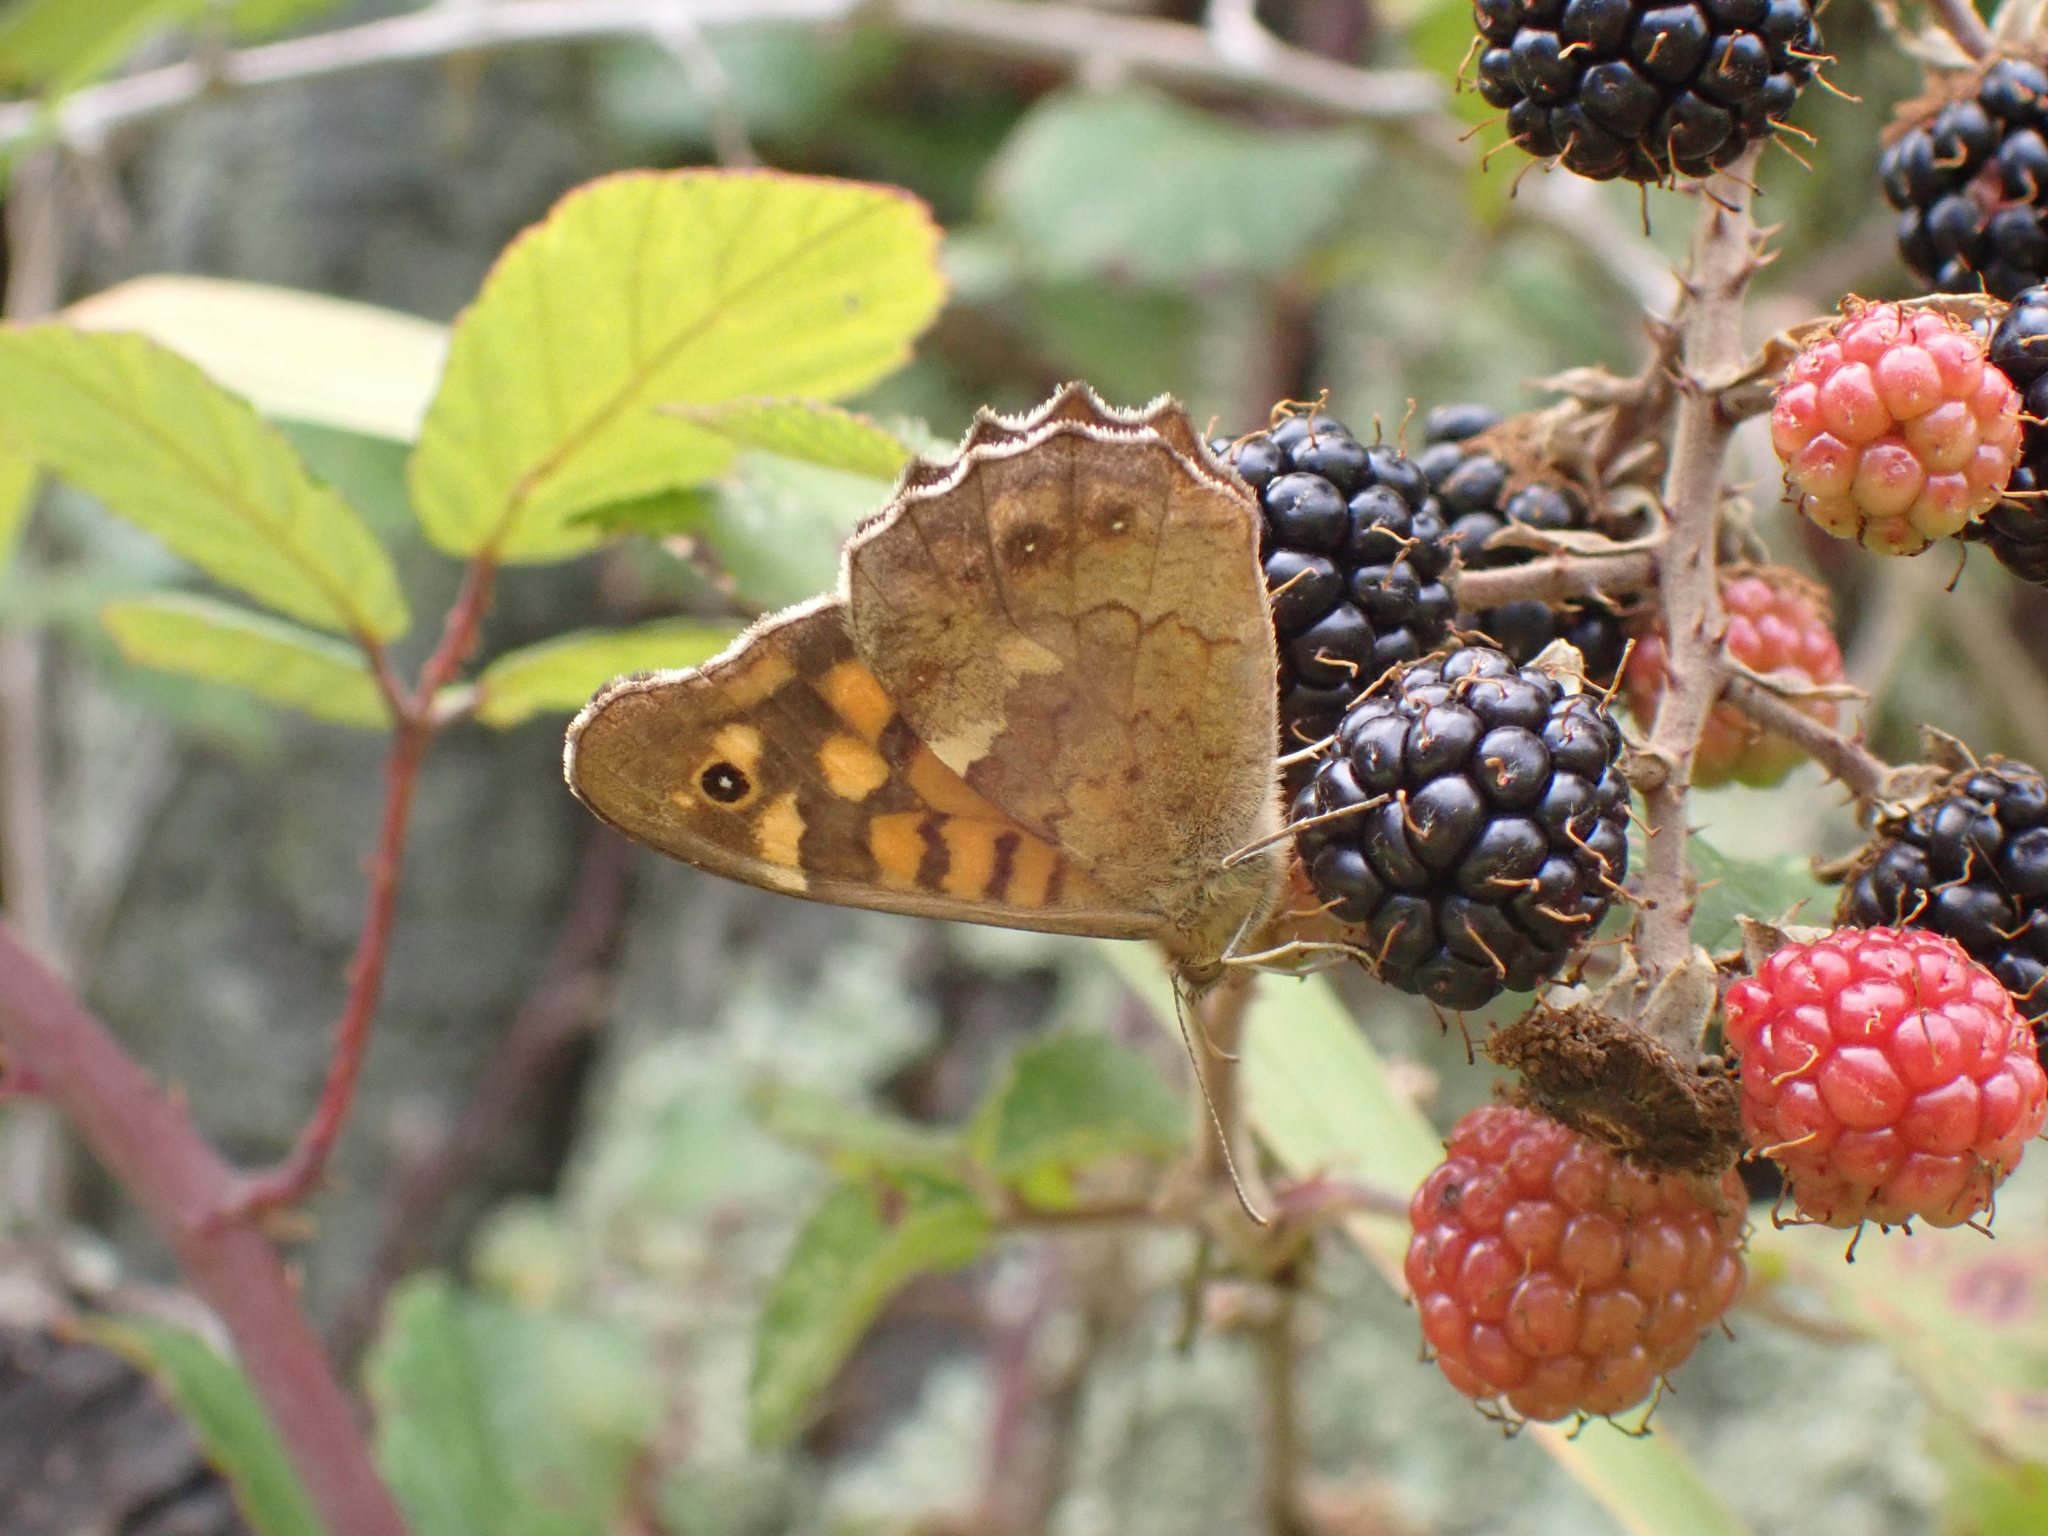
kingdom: Animalia
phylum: Arthropoda
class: Insecta
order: Lepidoptera
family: Nymphalidae
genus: Pararge
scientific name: Pararge aegeria
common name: Speckled wood
